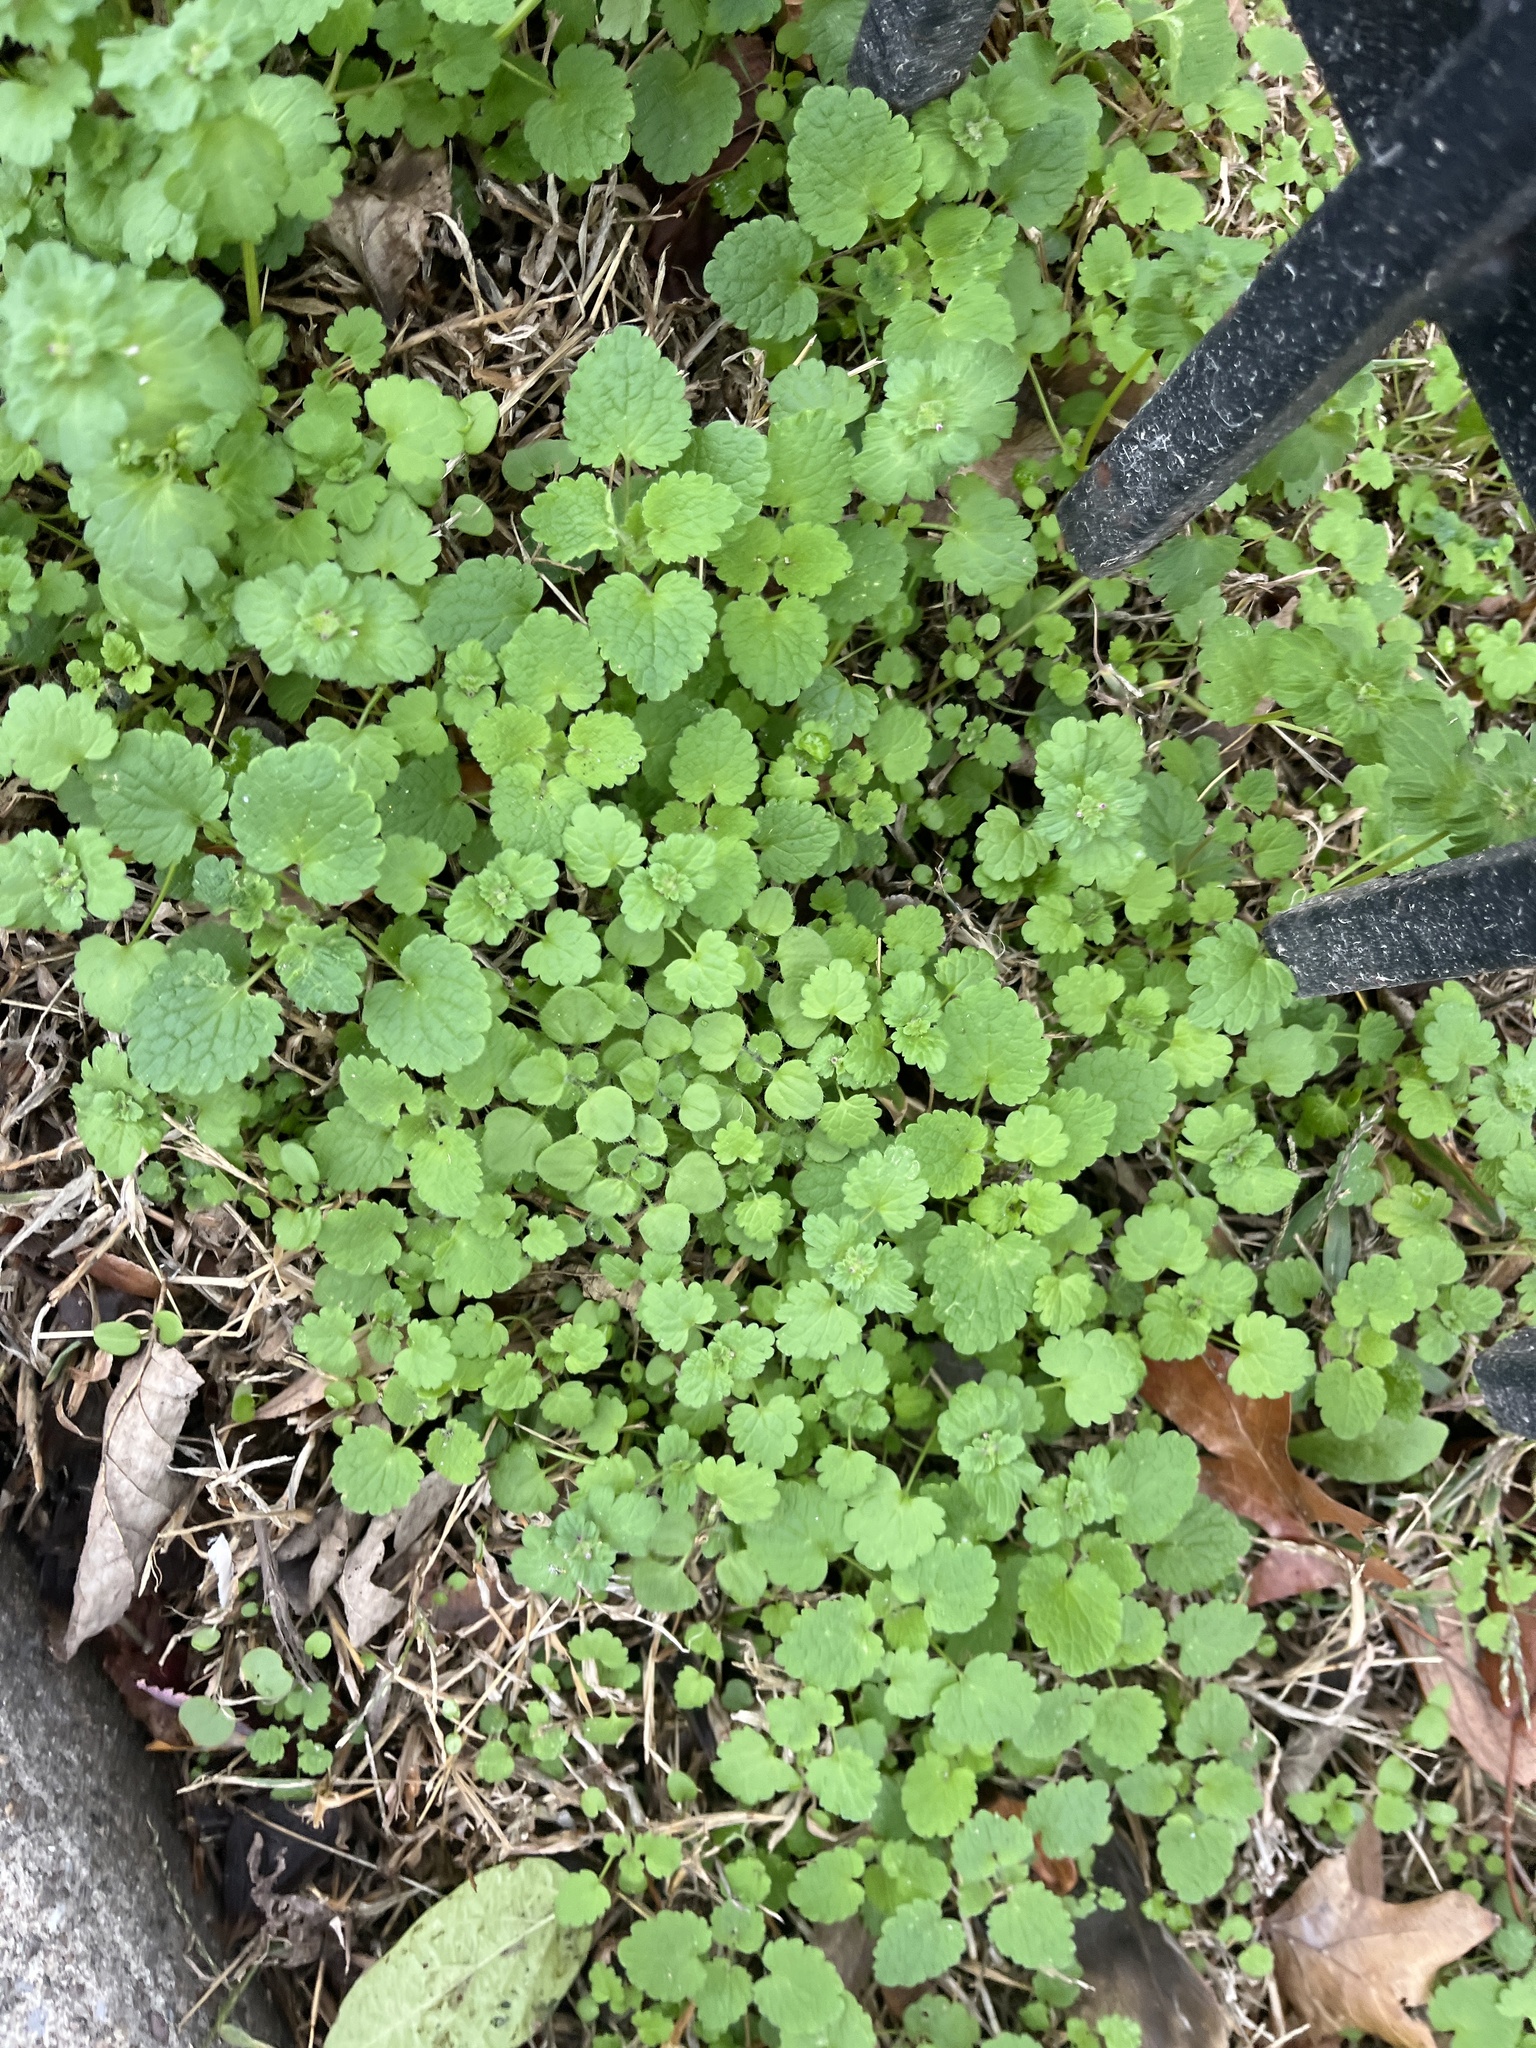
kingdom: Plantae
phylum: Tracheophyta
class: Magnoliopsida
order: Lamiales
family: Lamiaceae
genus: Lamium
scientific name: Lamium purpureum
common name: Red dead-nettle
